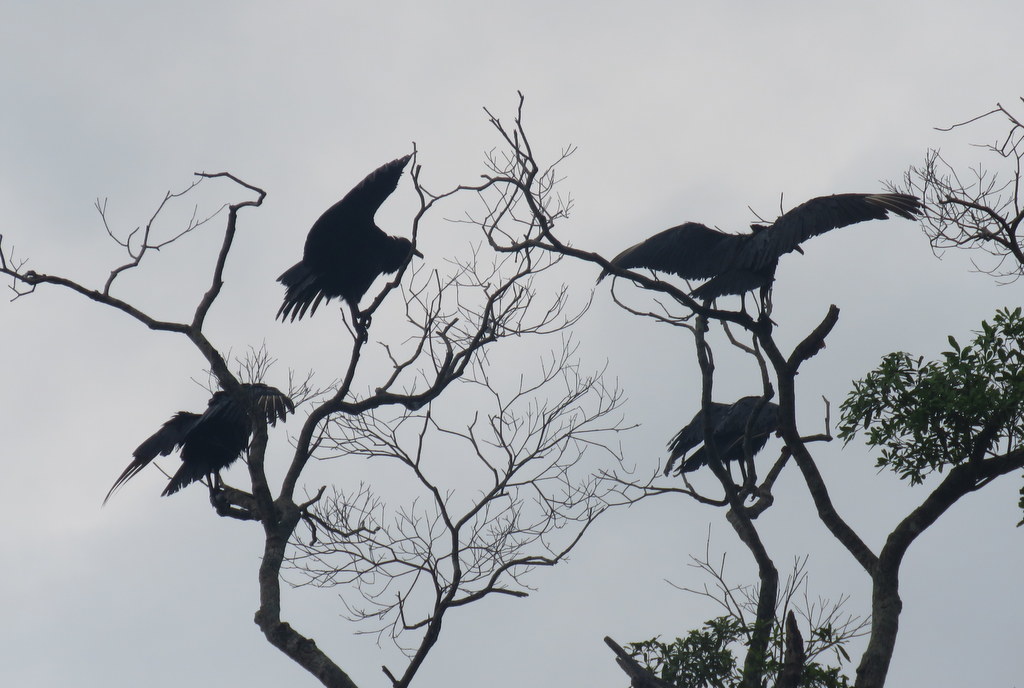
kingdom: Animalia
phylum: Chordata
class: Aves
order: Accipitriformes
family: Cathartidae
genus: Coragyps
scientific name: Coragyps atratus
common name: Black vulture
